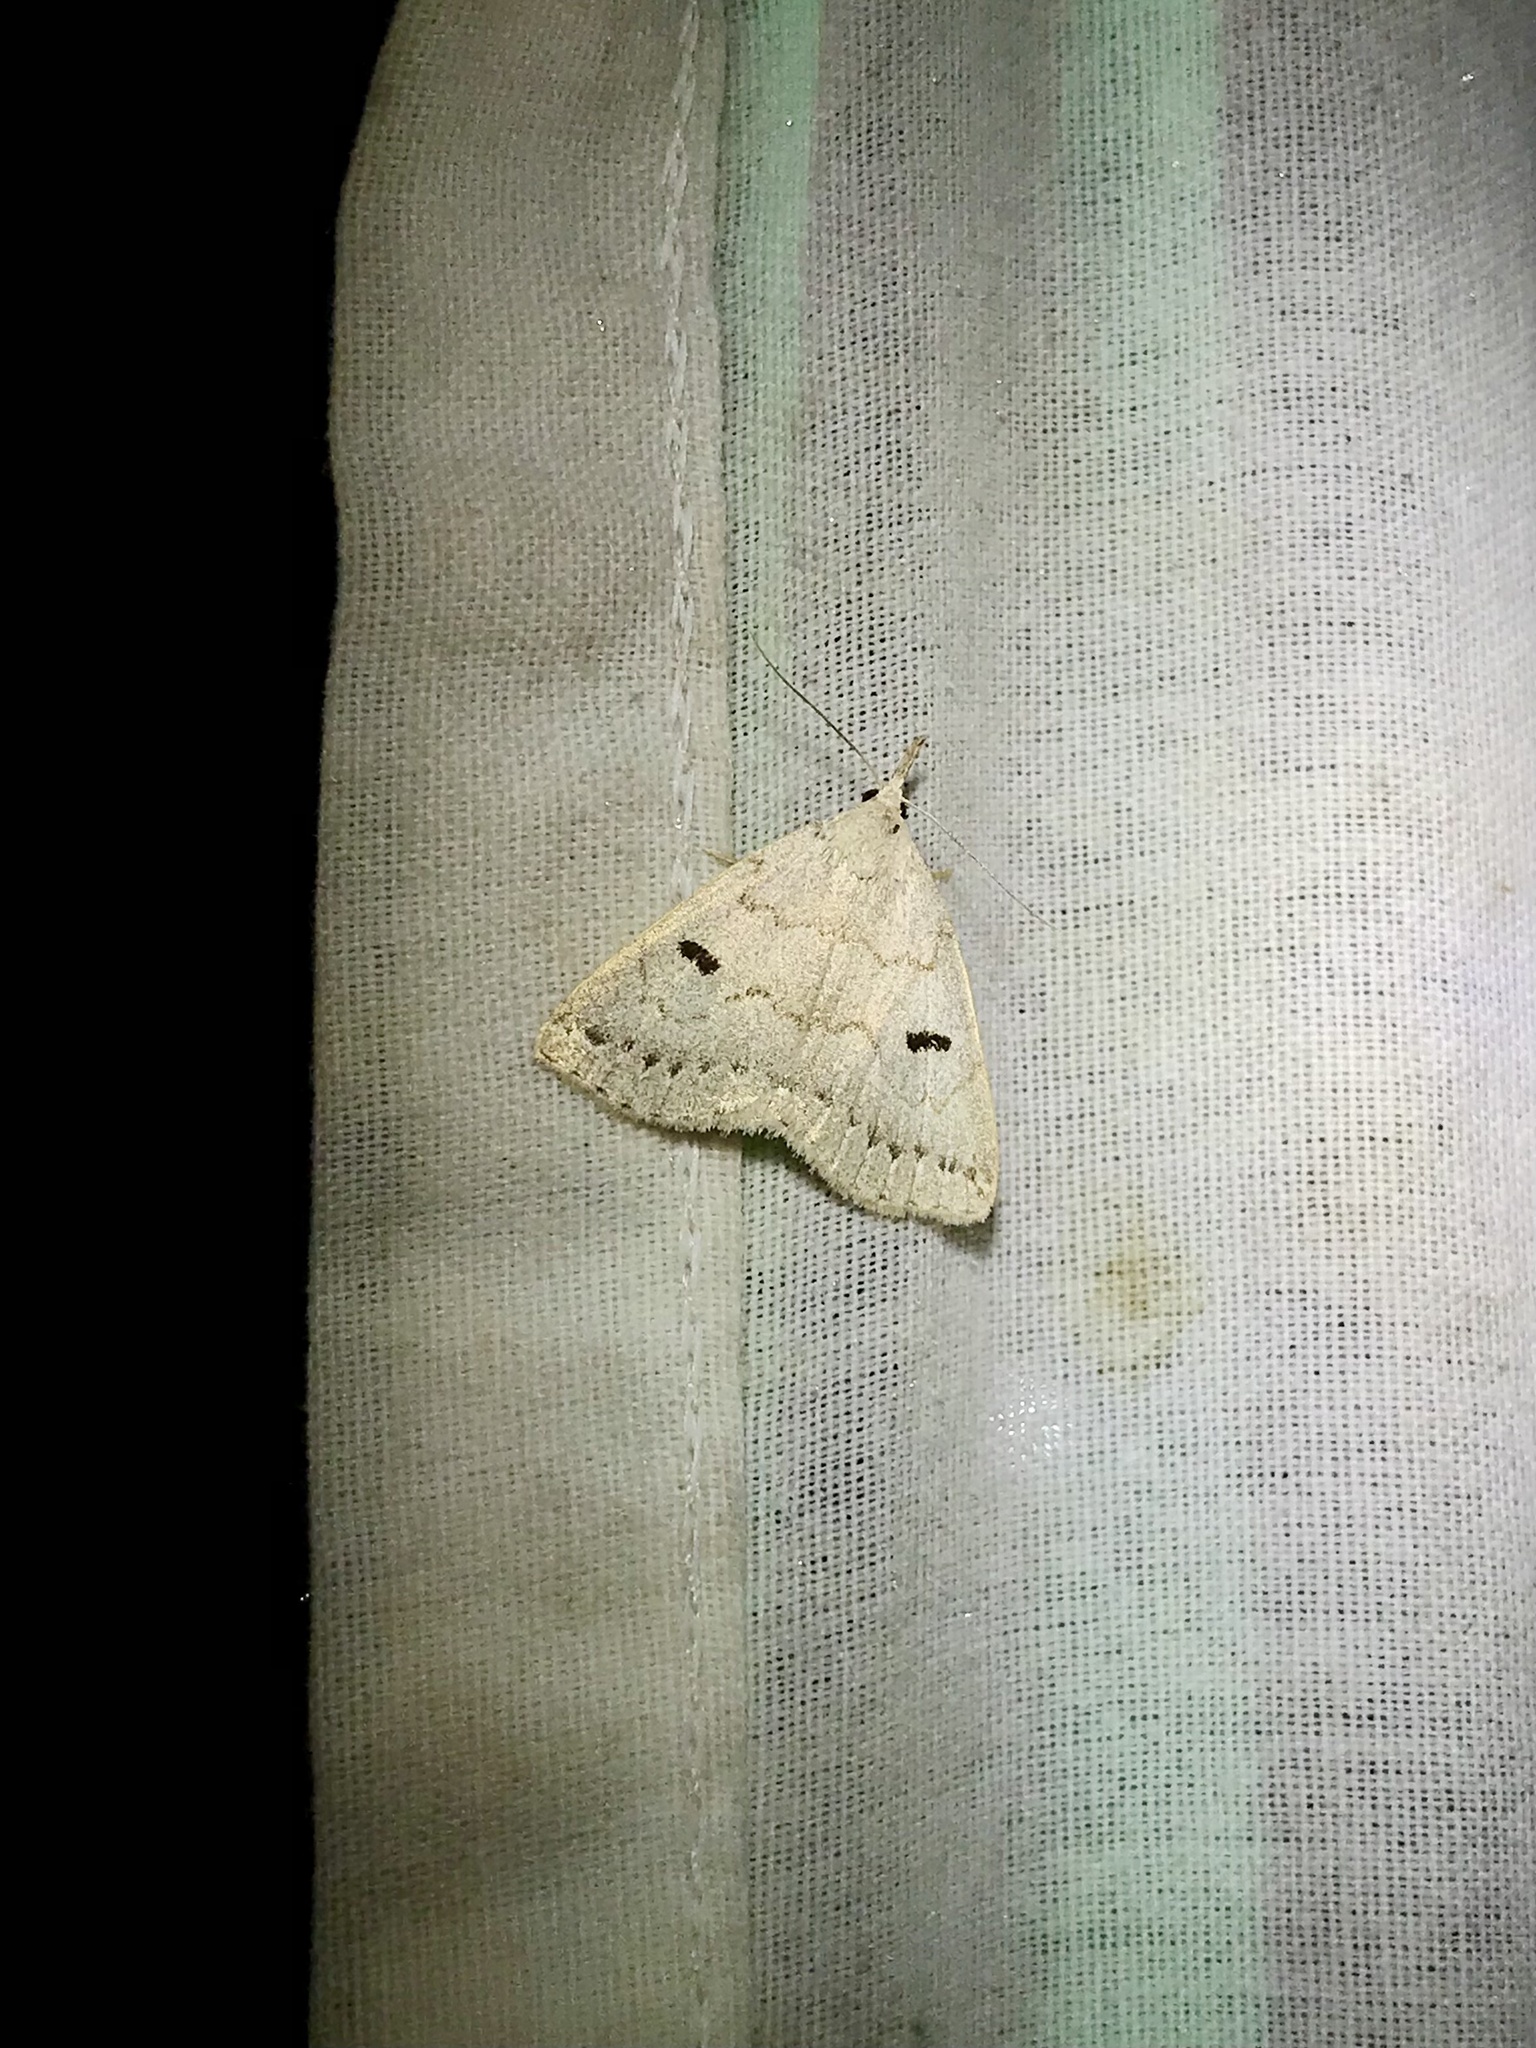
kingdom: Animalia
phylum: Arthropoda
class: Insecta
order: Lepidoptera
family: Erebidae
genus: Macrochilo
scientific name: Macrochilo morbidalis
